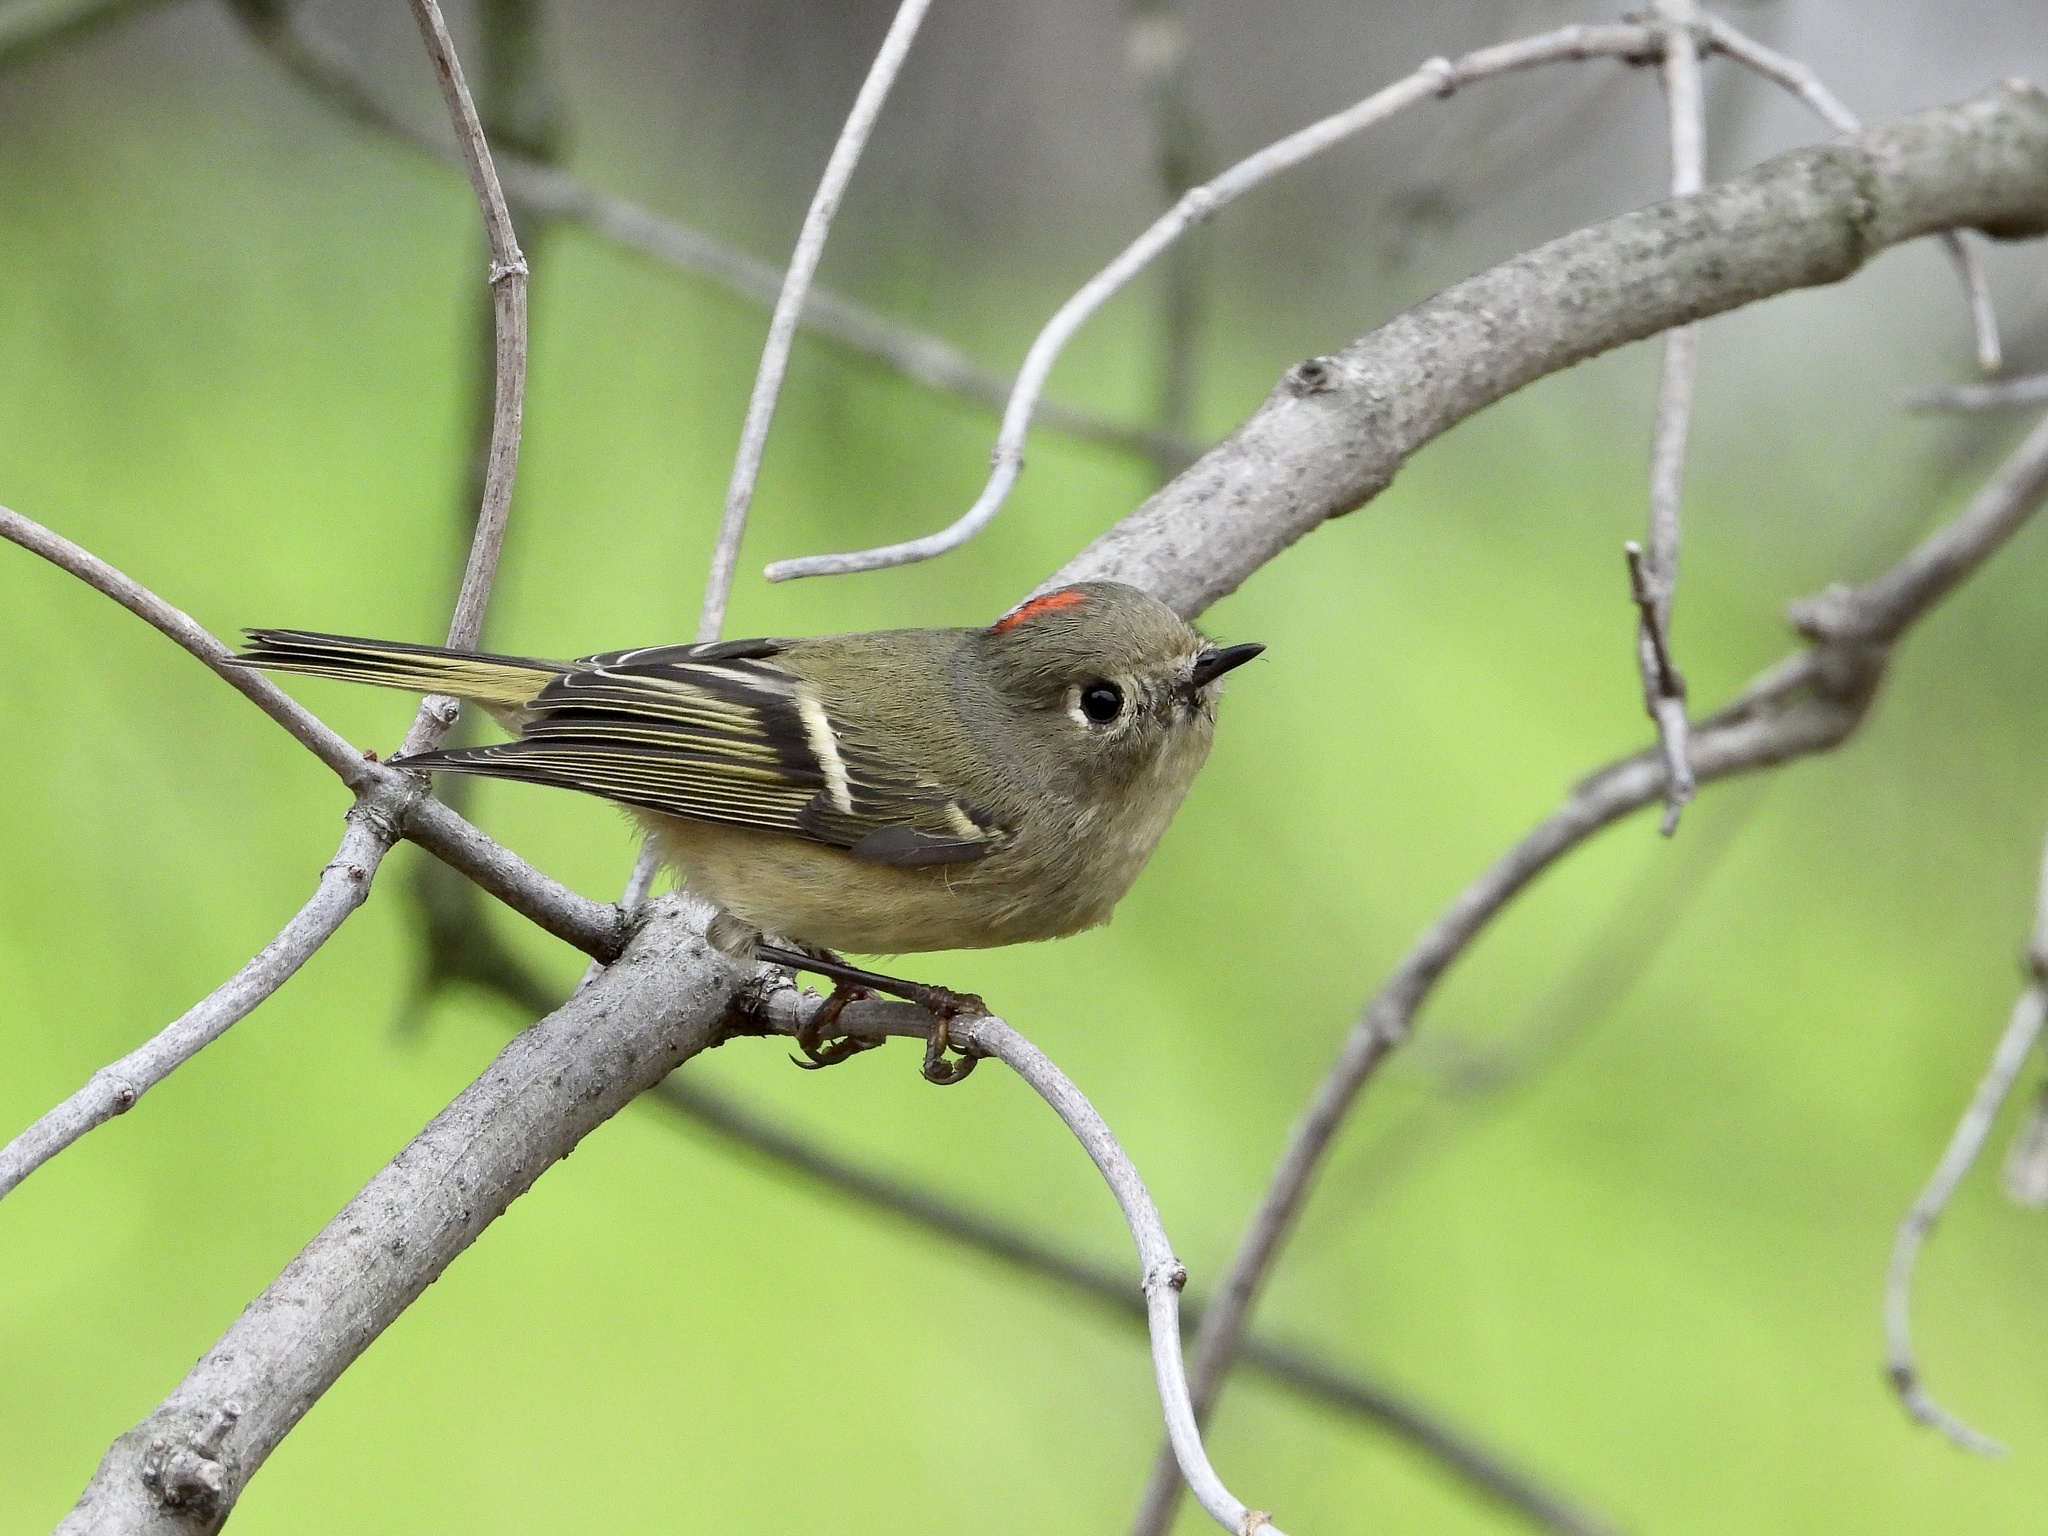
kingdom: Animalia
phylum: Chordata
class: Aves
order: Passeriformes
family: Regulidae
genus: Regulus
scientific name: Regulus calendula
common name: Ruby-crowned kinglet
